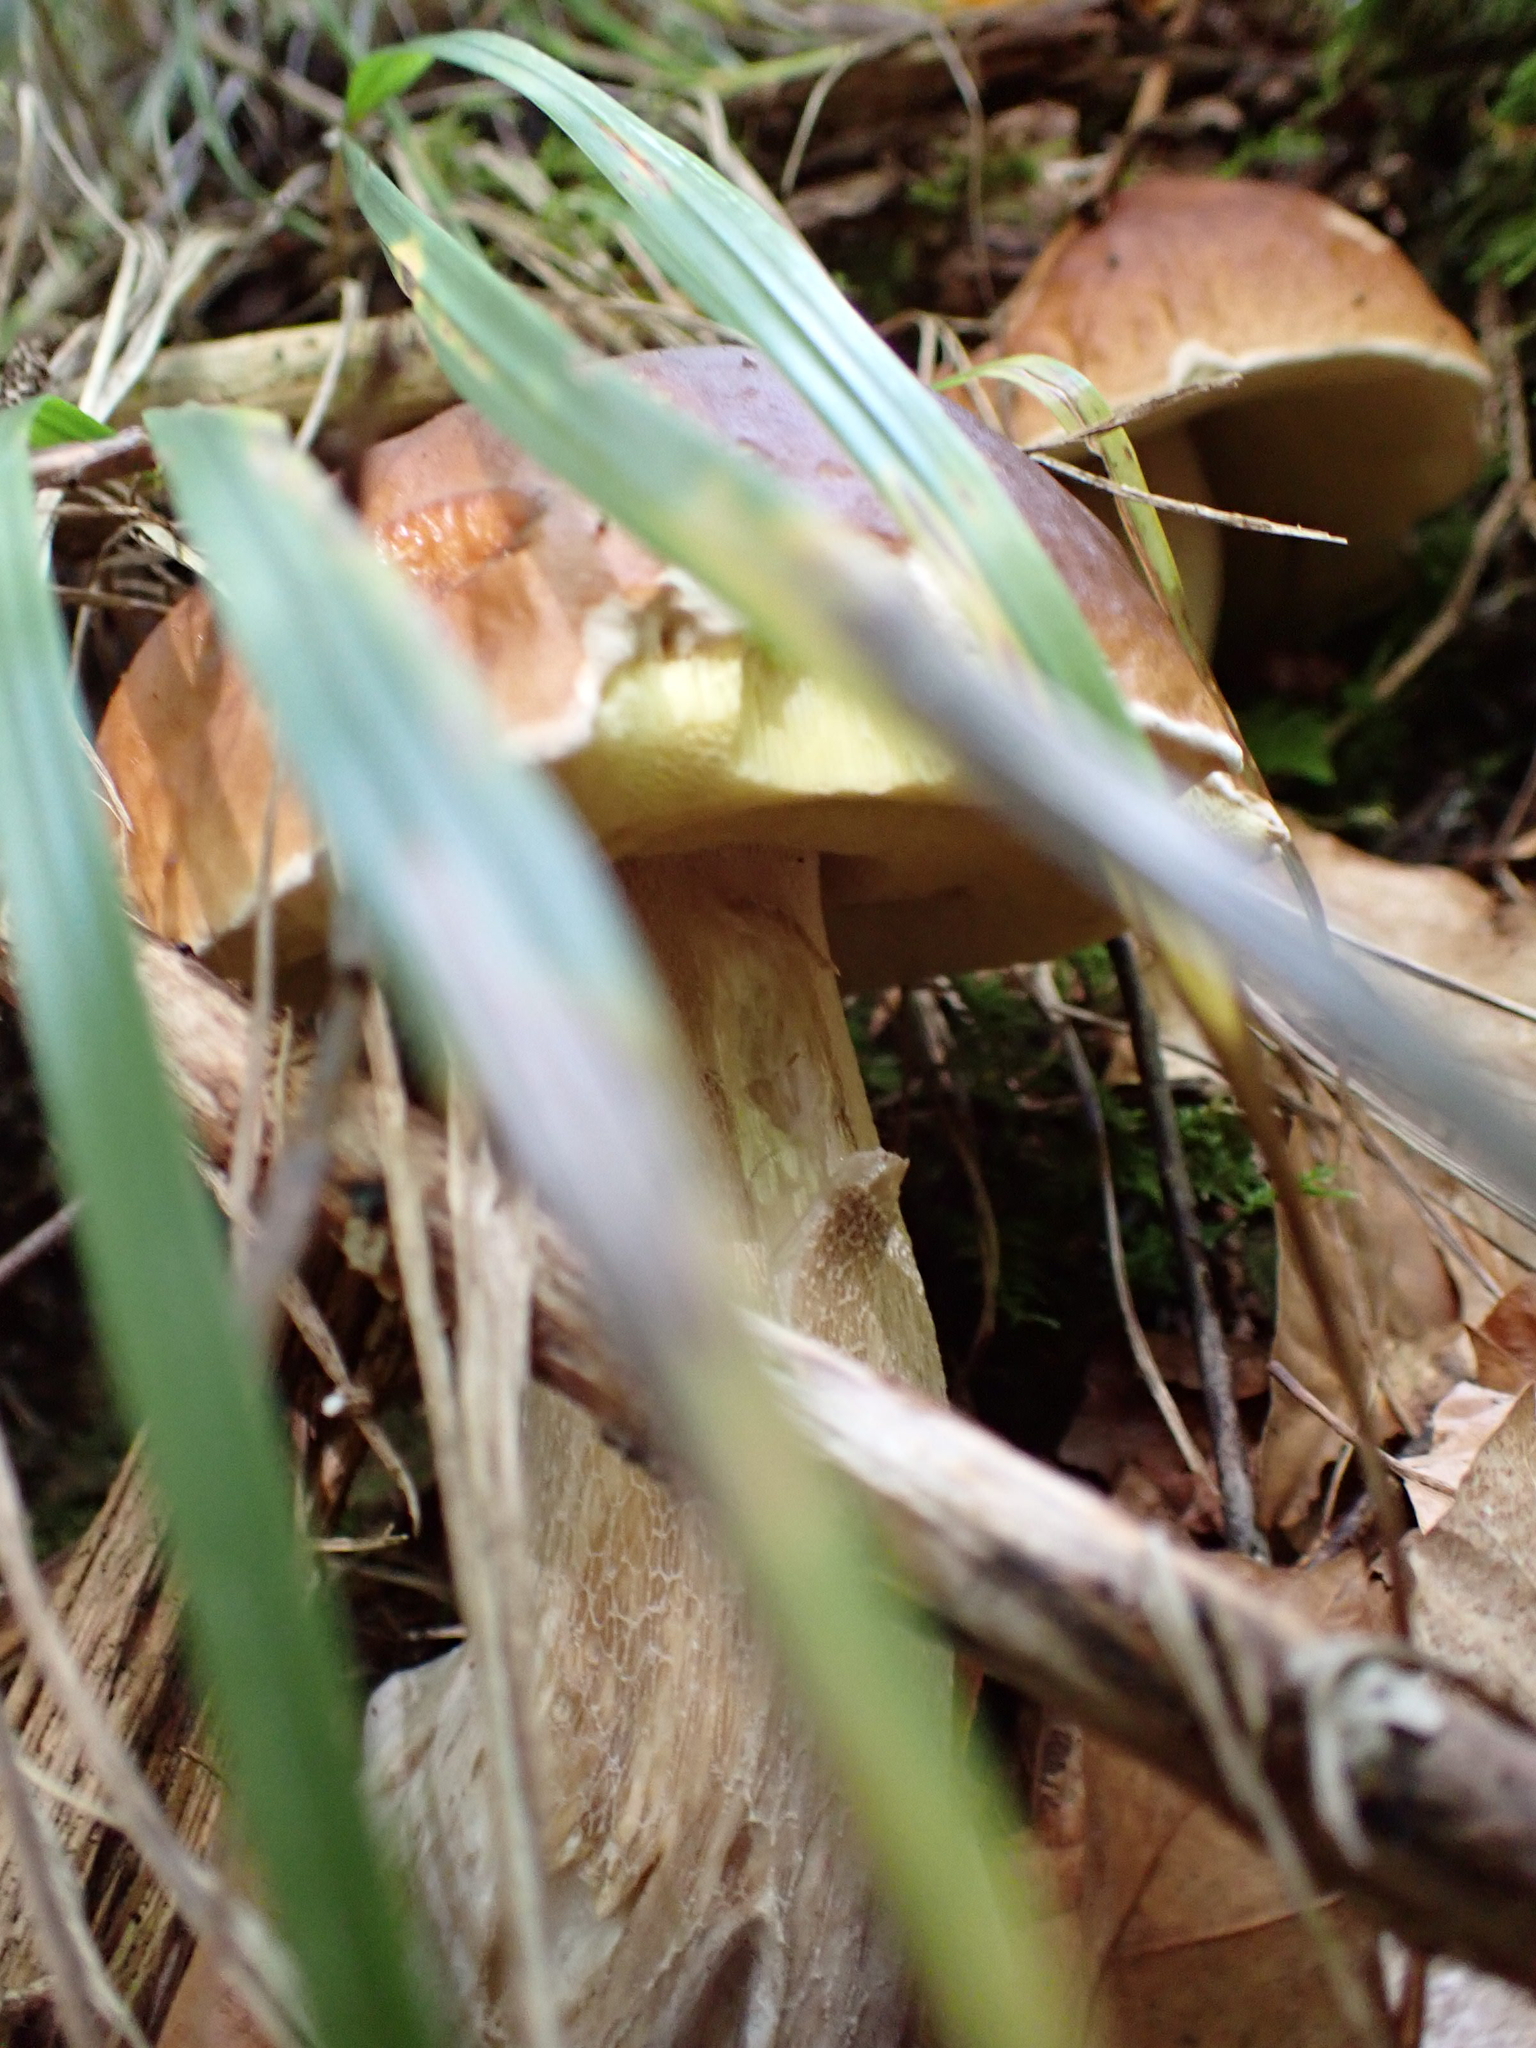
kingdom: Fungi
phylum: Basidiomycota
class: Agaricomycetes
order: Boletales
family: Boletaceae
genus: Boletus
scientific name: Boletus edulis
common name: Cep
